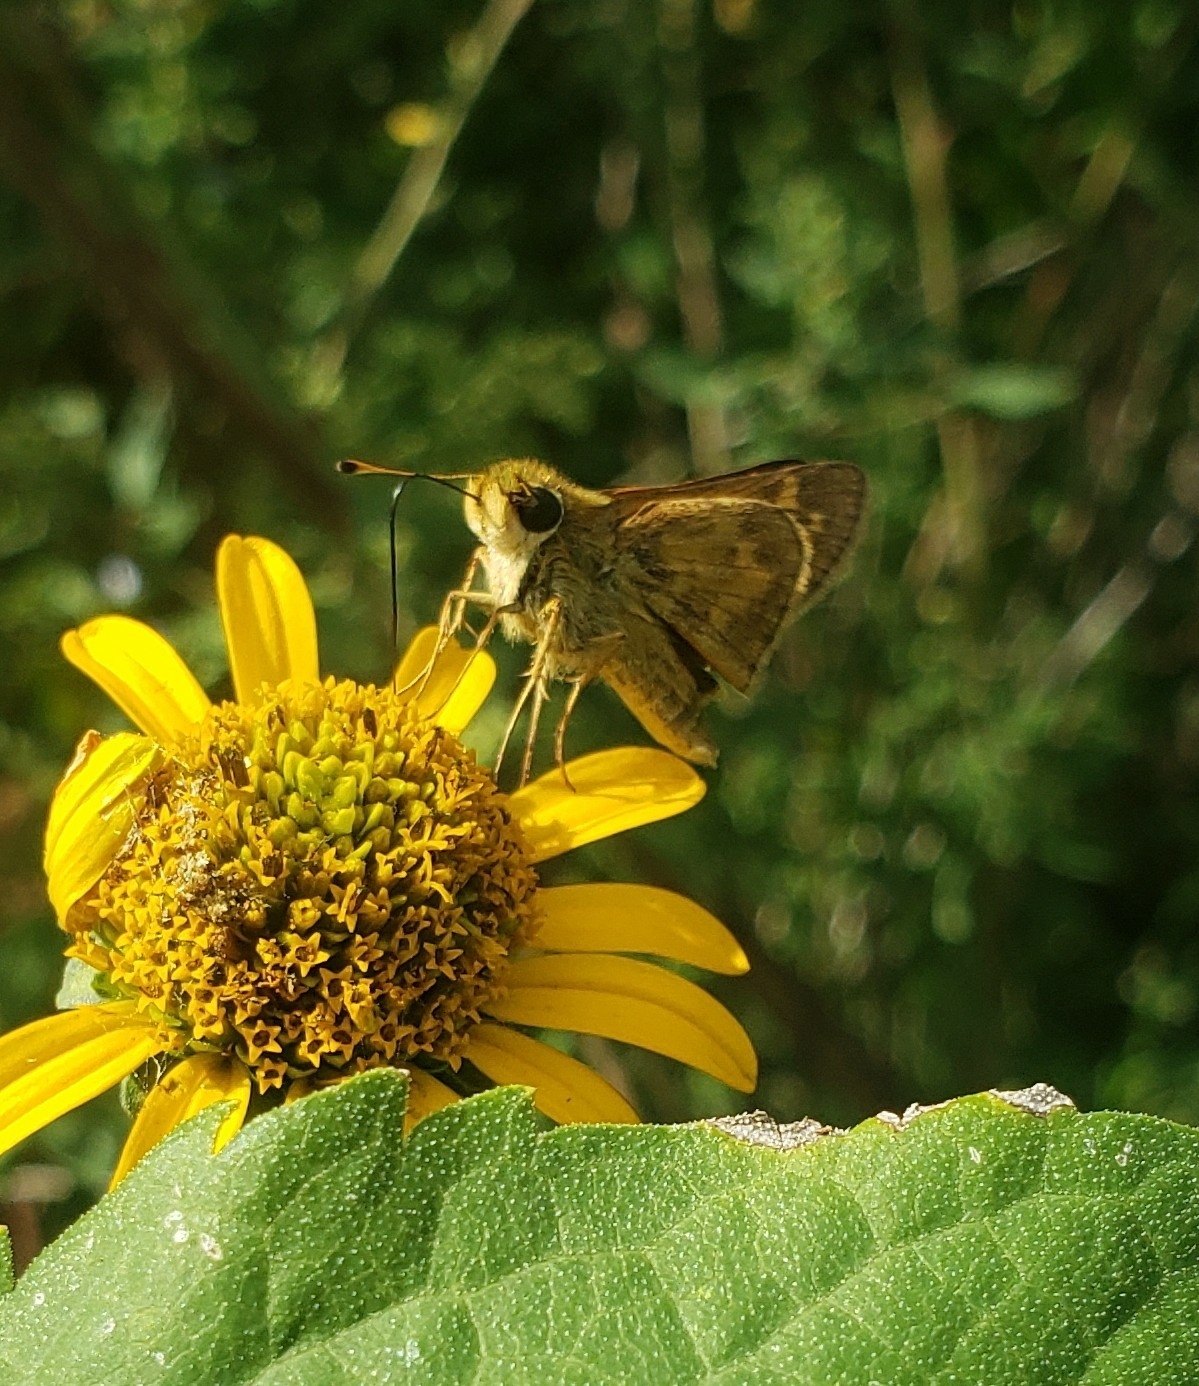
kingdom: Animalia
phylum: Arthropoda
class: Insecta
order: Lepidoptera
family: Hesperiidae
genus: Atalopedes
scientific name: Atalopedes
